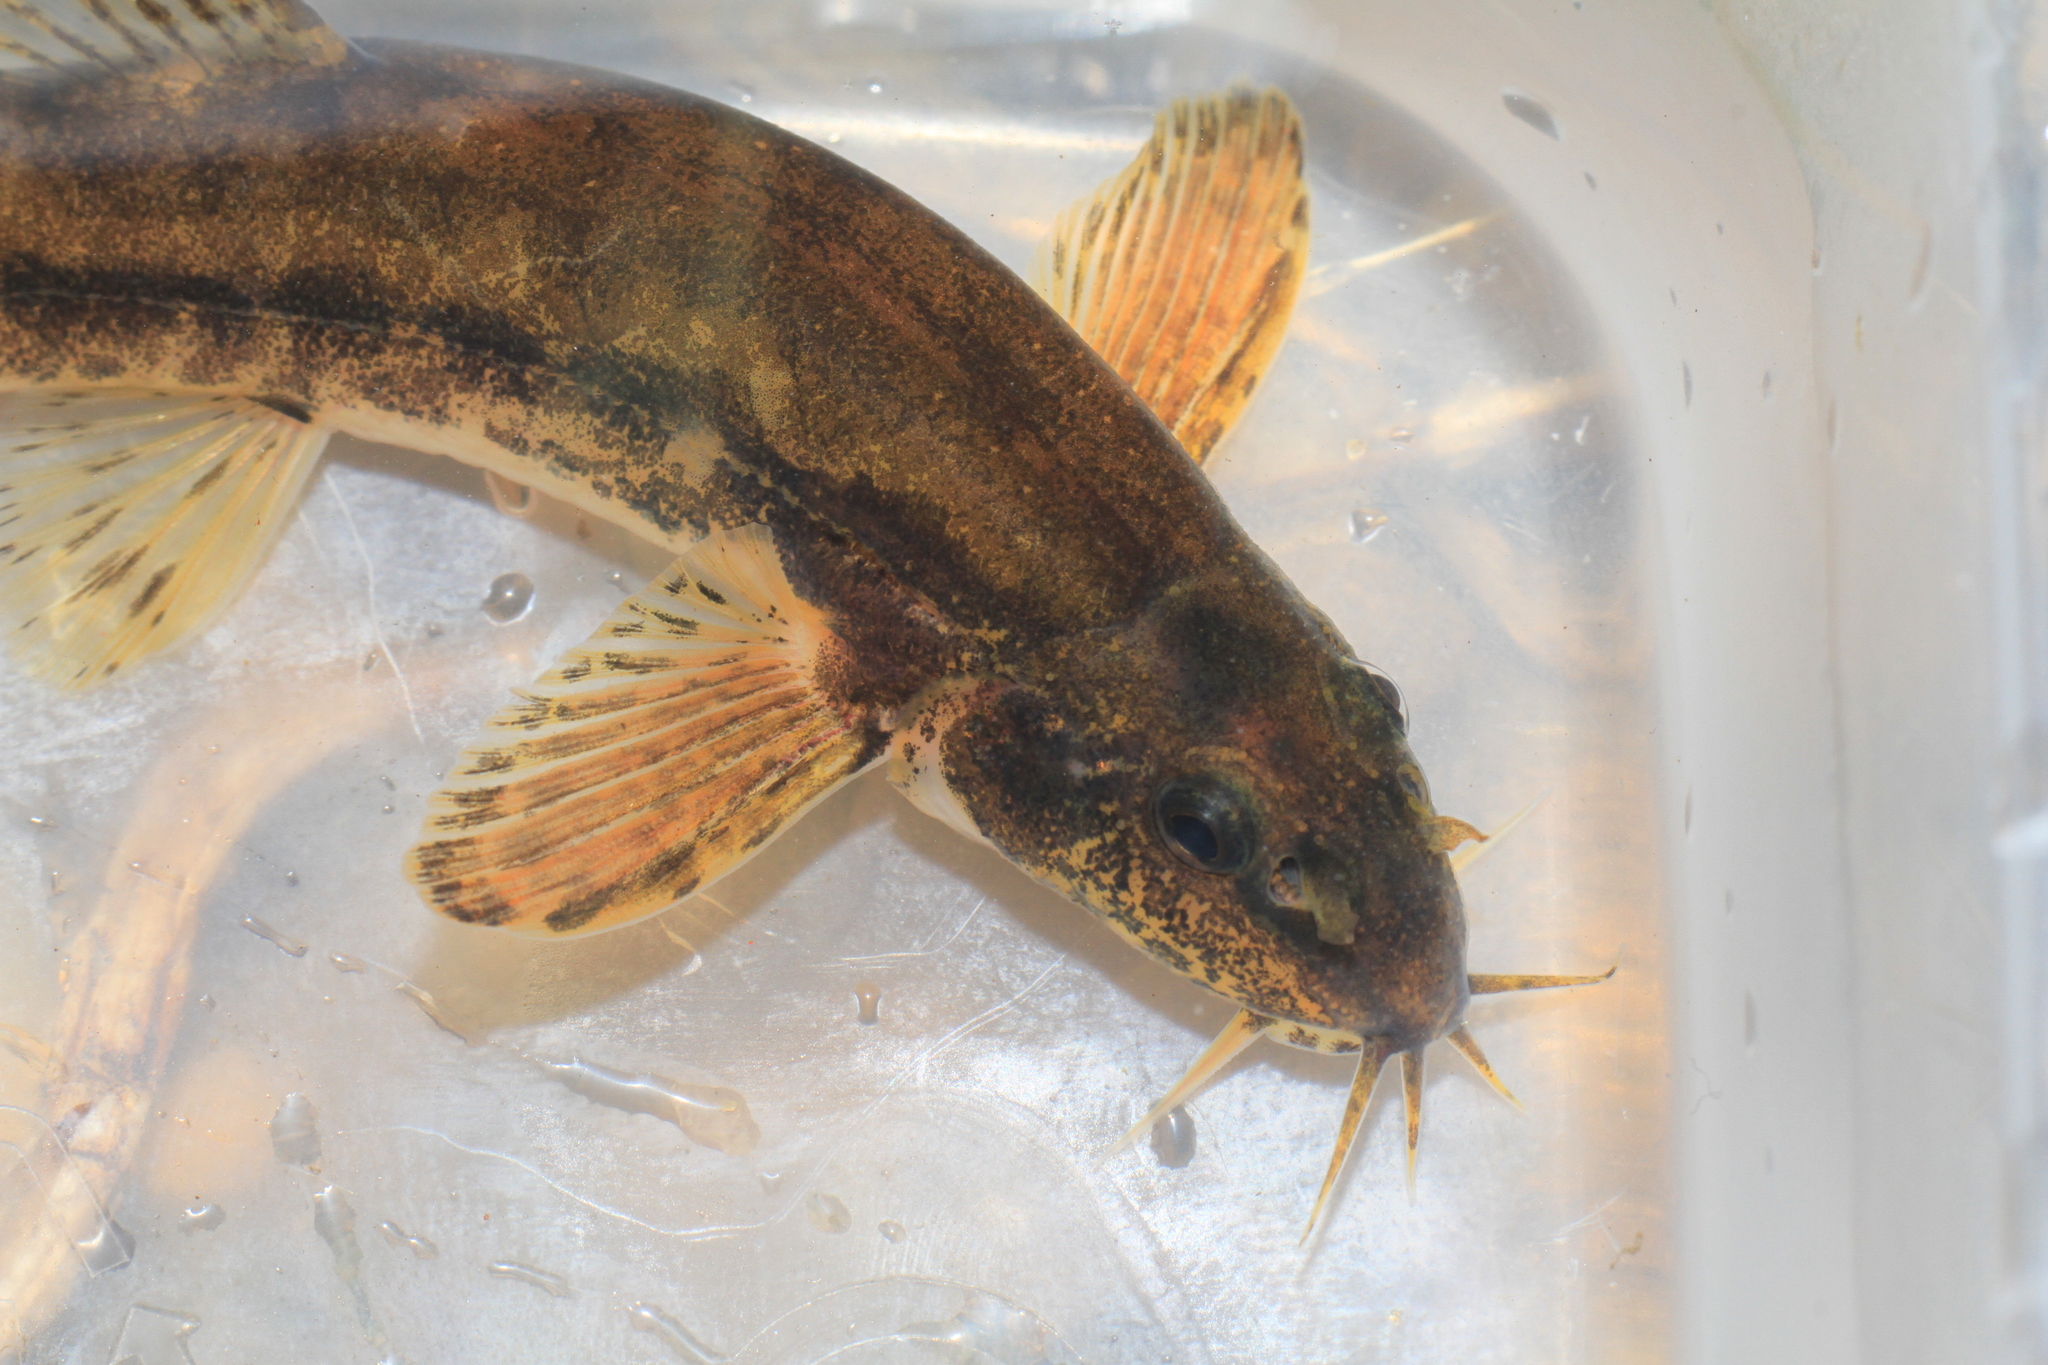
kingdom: Animalia
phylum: Chordata
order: Cypriniformes
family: Nemacheilidae
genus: Barbatula
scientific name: Barbatula barbatula
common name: Stone loach
